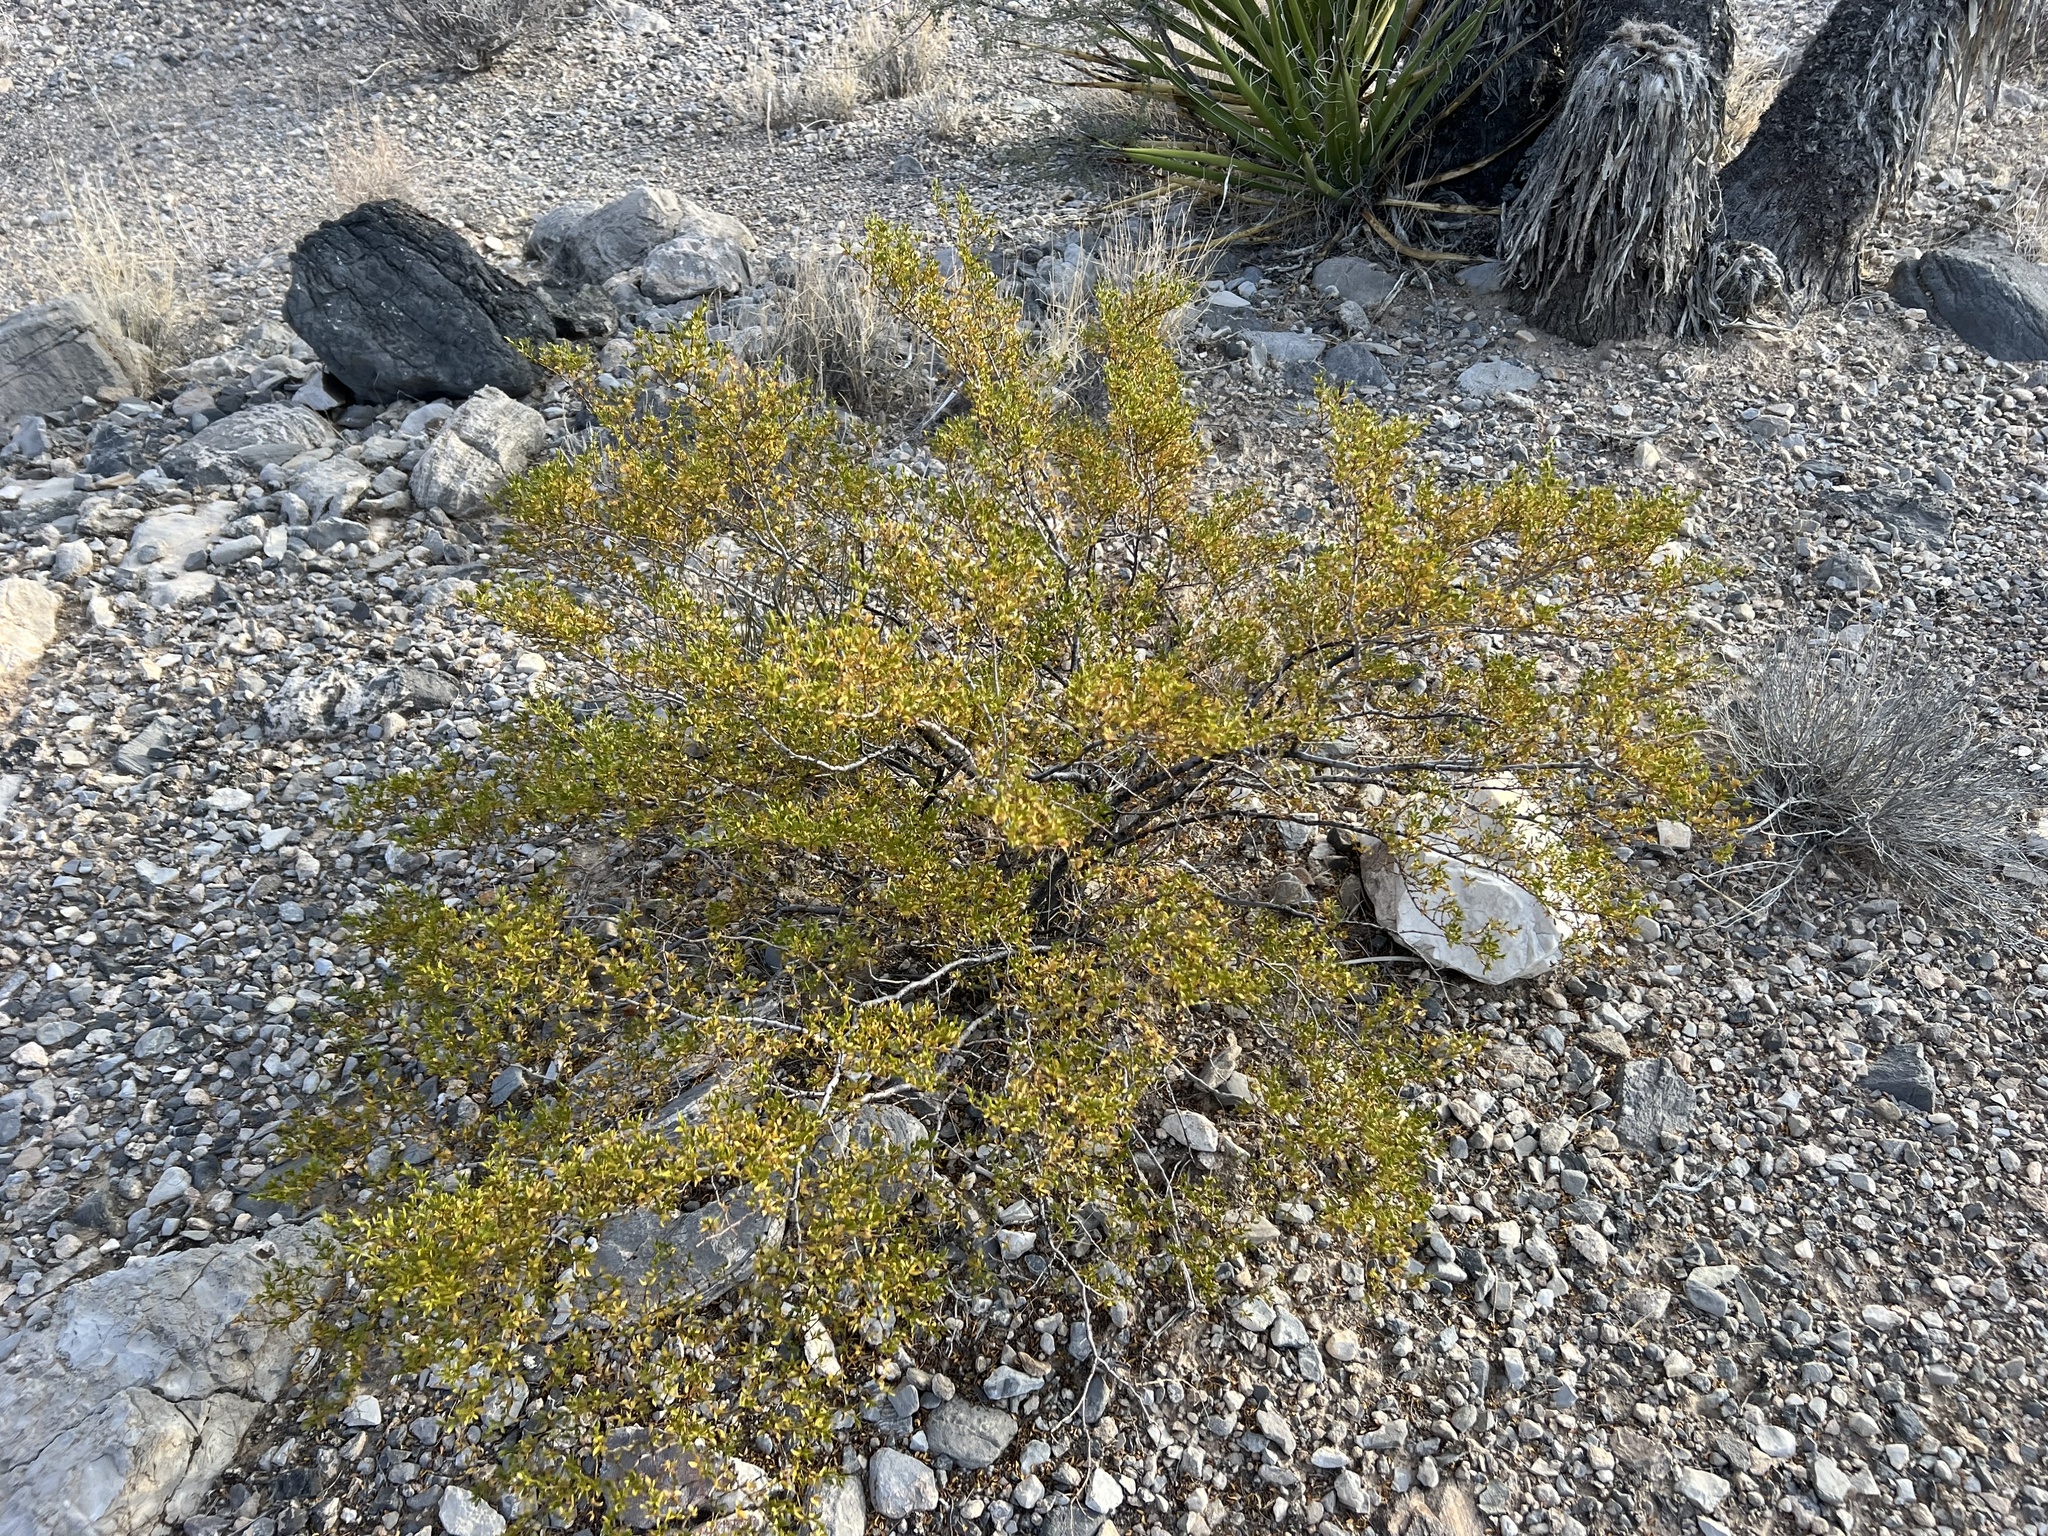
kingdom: Plantae
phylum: Tracheophyta
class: Magnoliopsida
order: Zygophyllales
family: Zygophyllaceae
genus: Larrea
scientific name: Larrea tridentata
